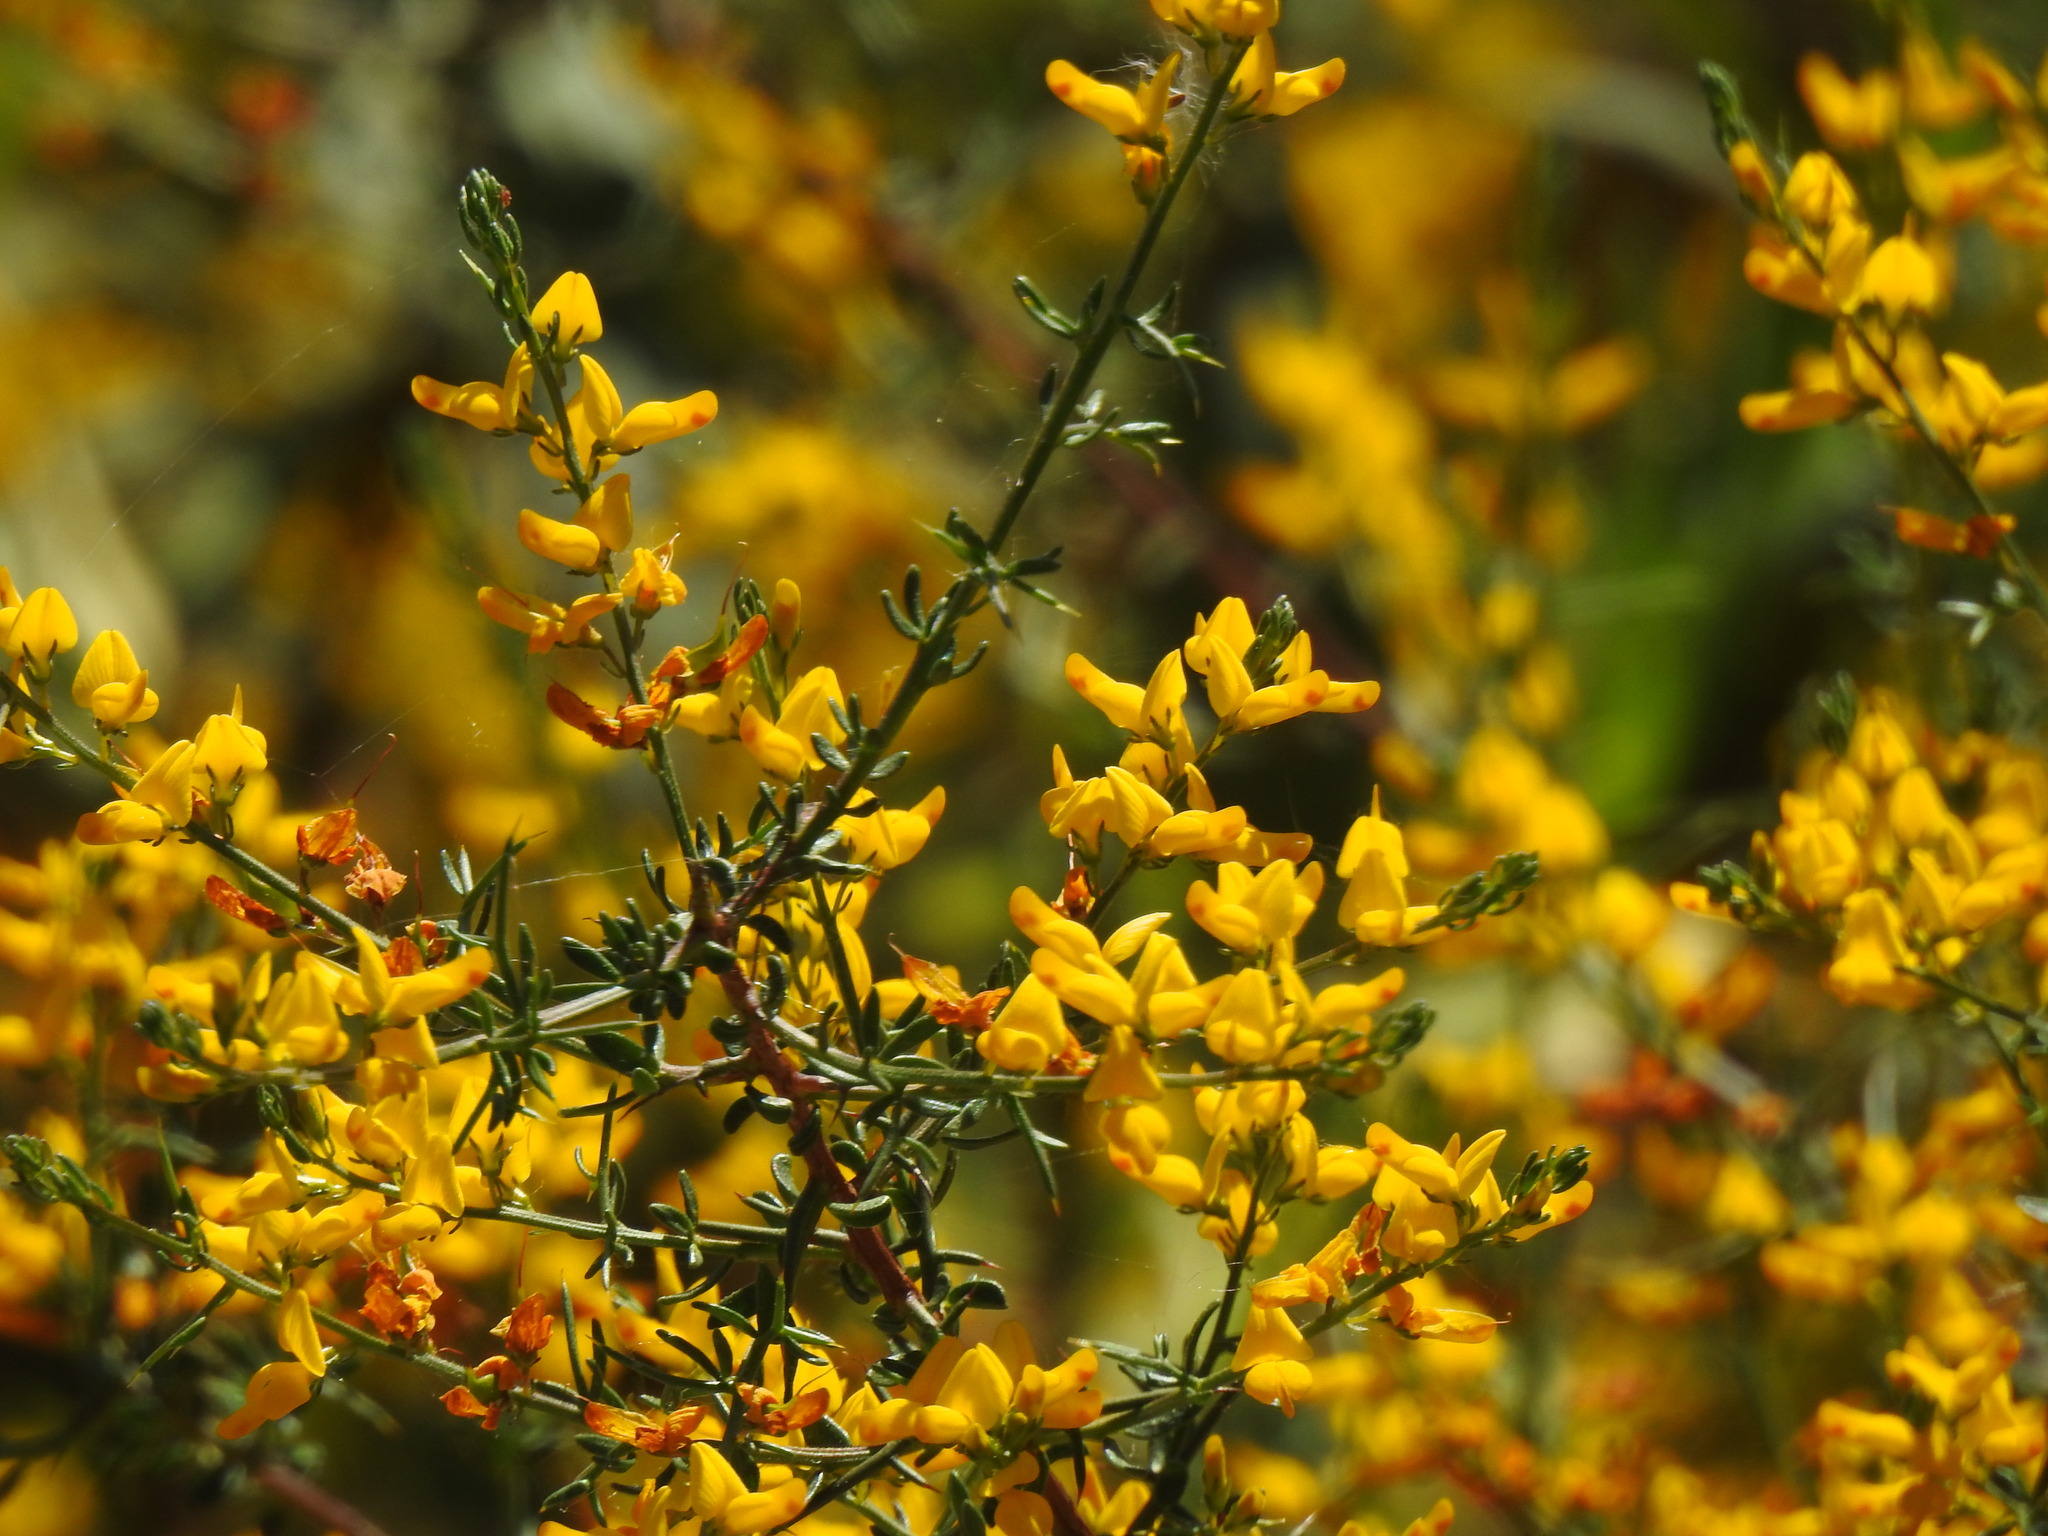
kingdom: Plantae
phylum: Tracheophyta
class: Magnoliopsida
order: Fabales
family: Fabaceae
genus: Genista
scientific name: Genista triacanthos
